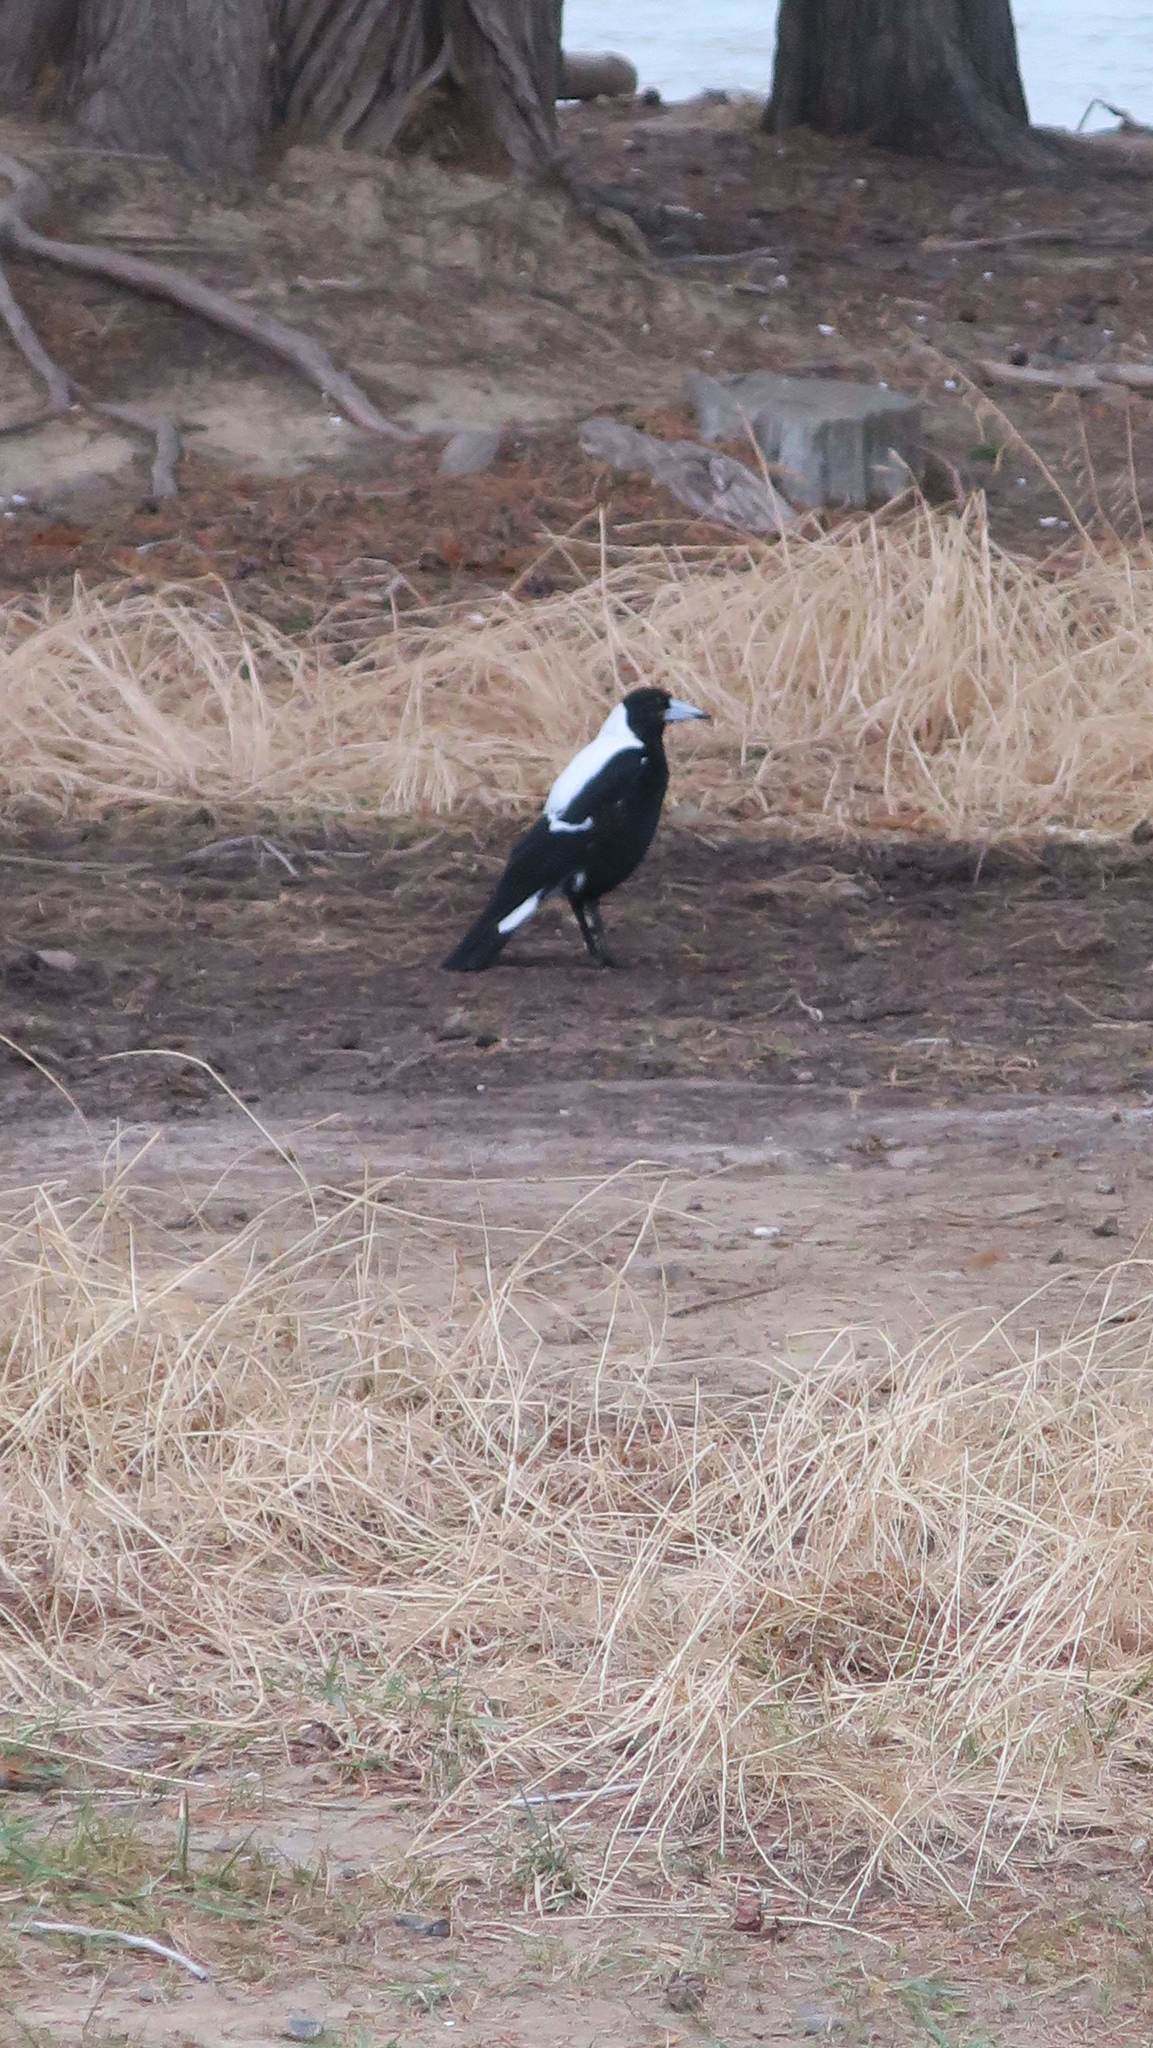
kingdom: Animalia
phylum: Chordata
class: Aves
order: Passeriformes
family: Cracticidae
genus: Gymnorhina
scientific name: Gymnorhina tibicen
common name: Australian magpie
